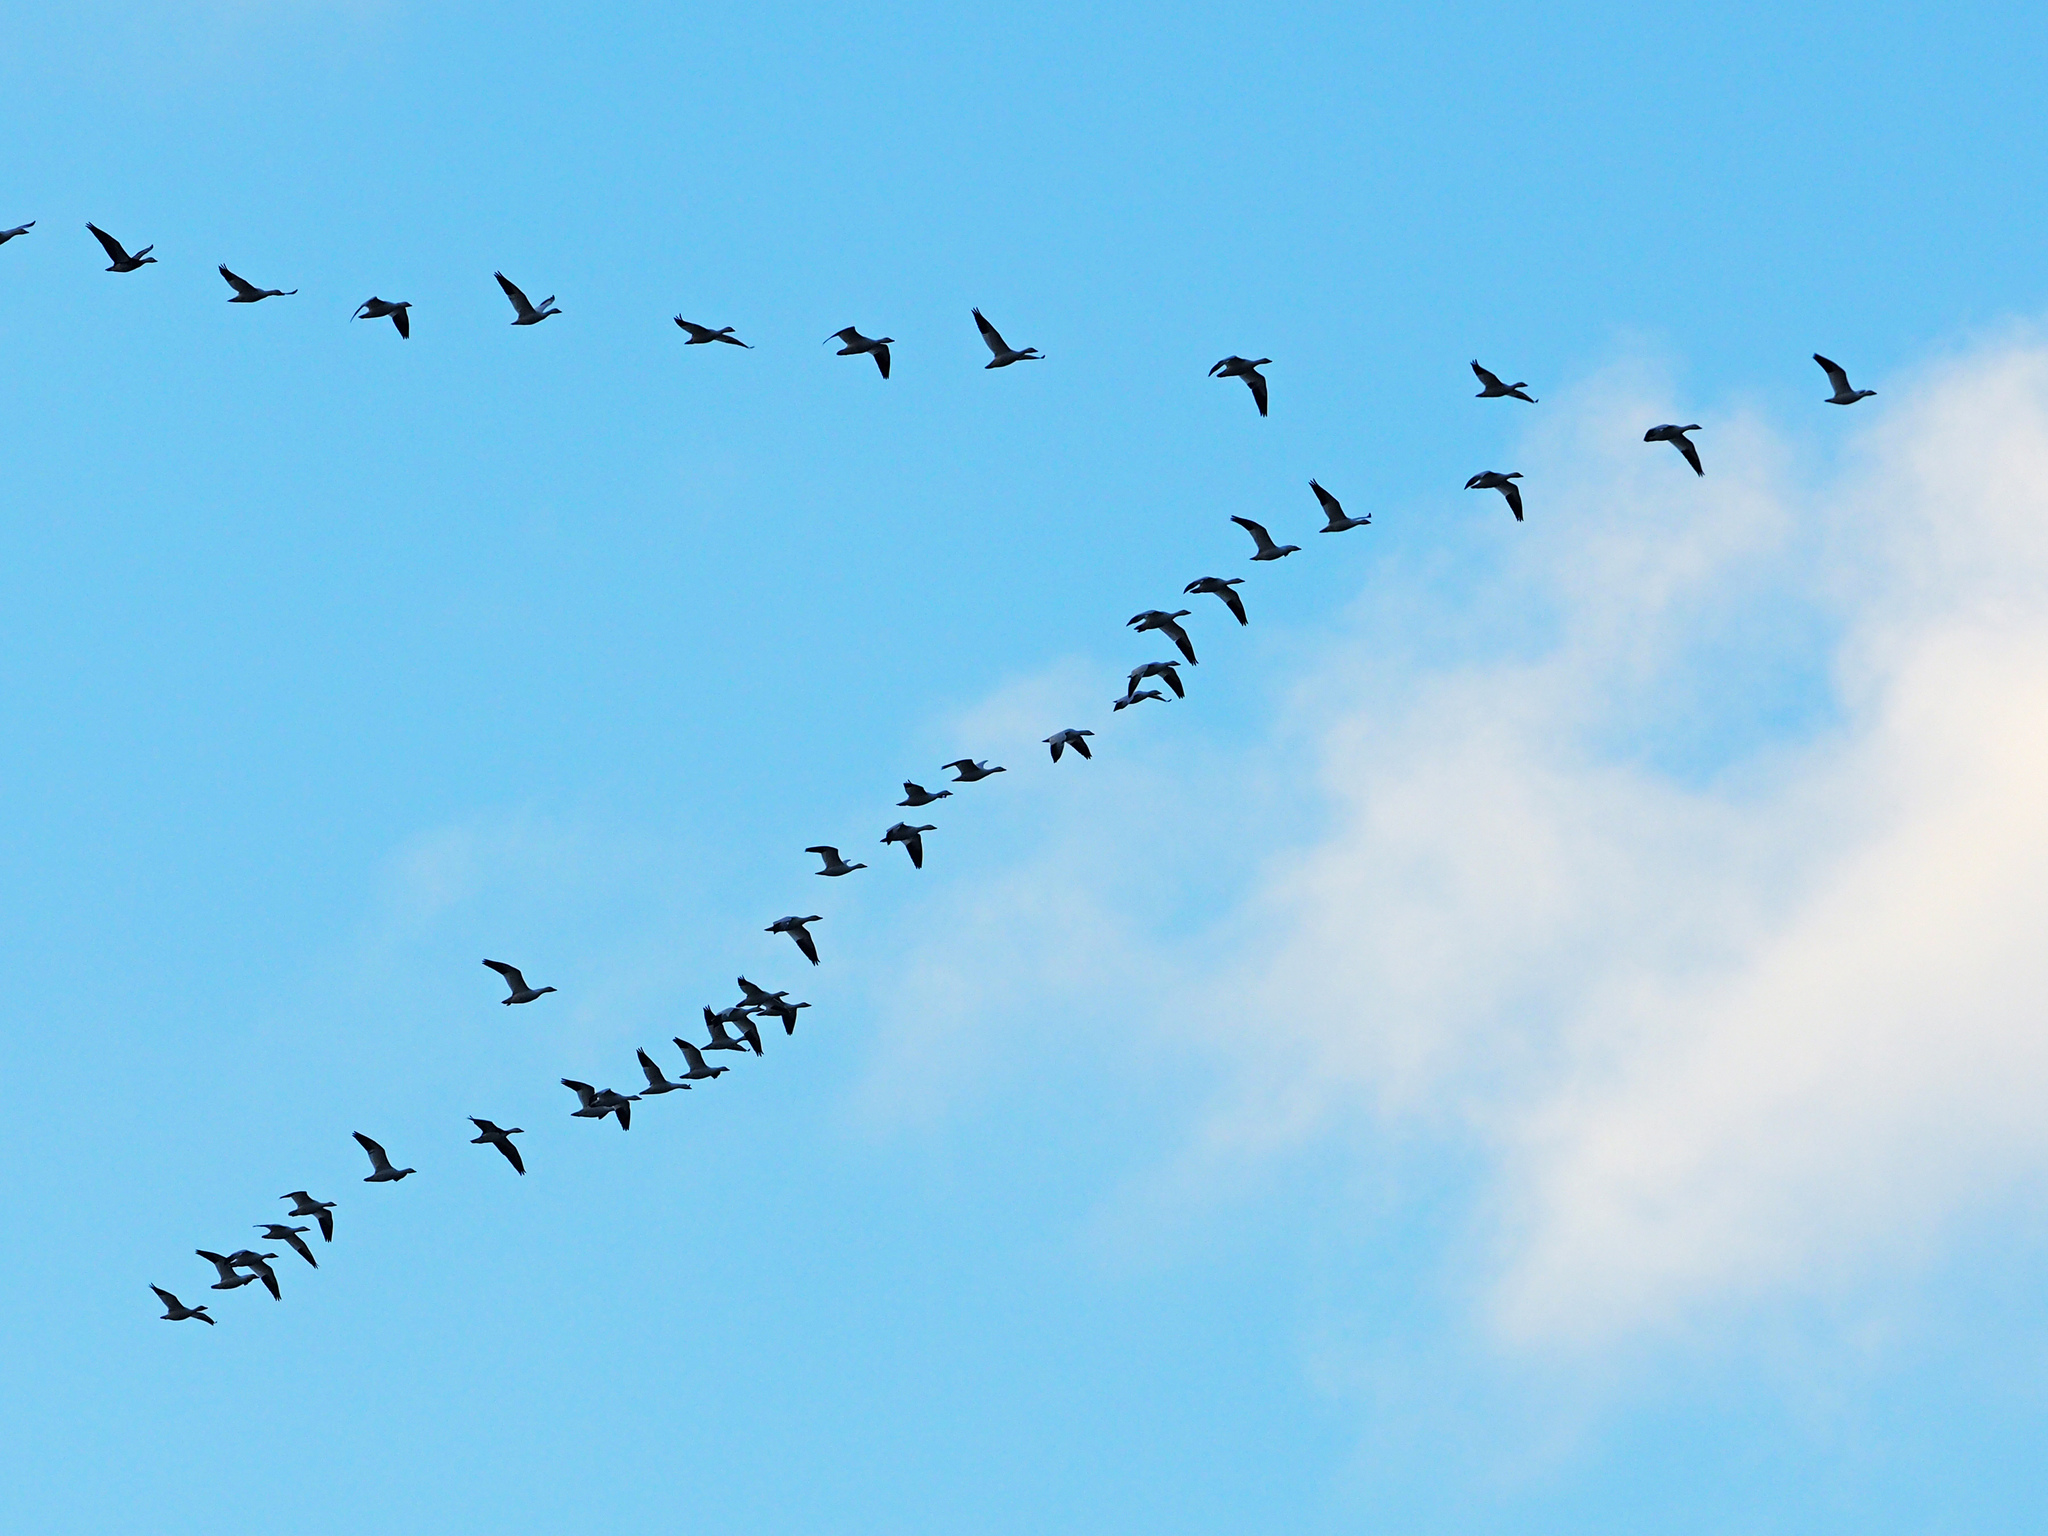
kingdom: Animalia
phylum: Chordata
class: Aves
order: Anseriformes
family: Anatidae
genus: Anser
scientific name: Anser caerulescens
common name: Snow goose
